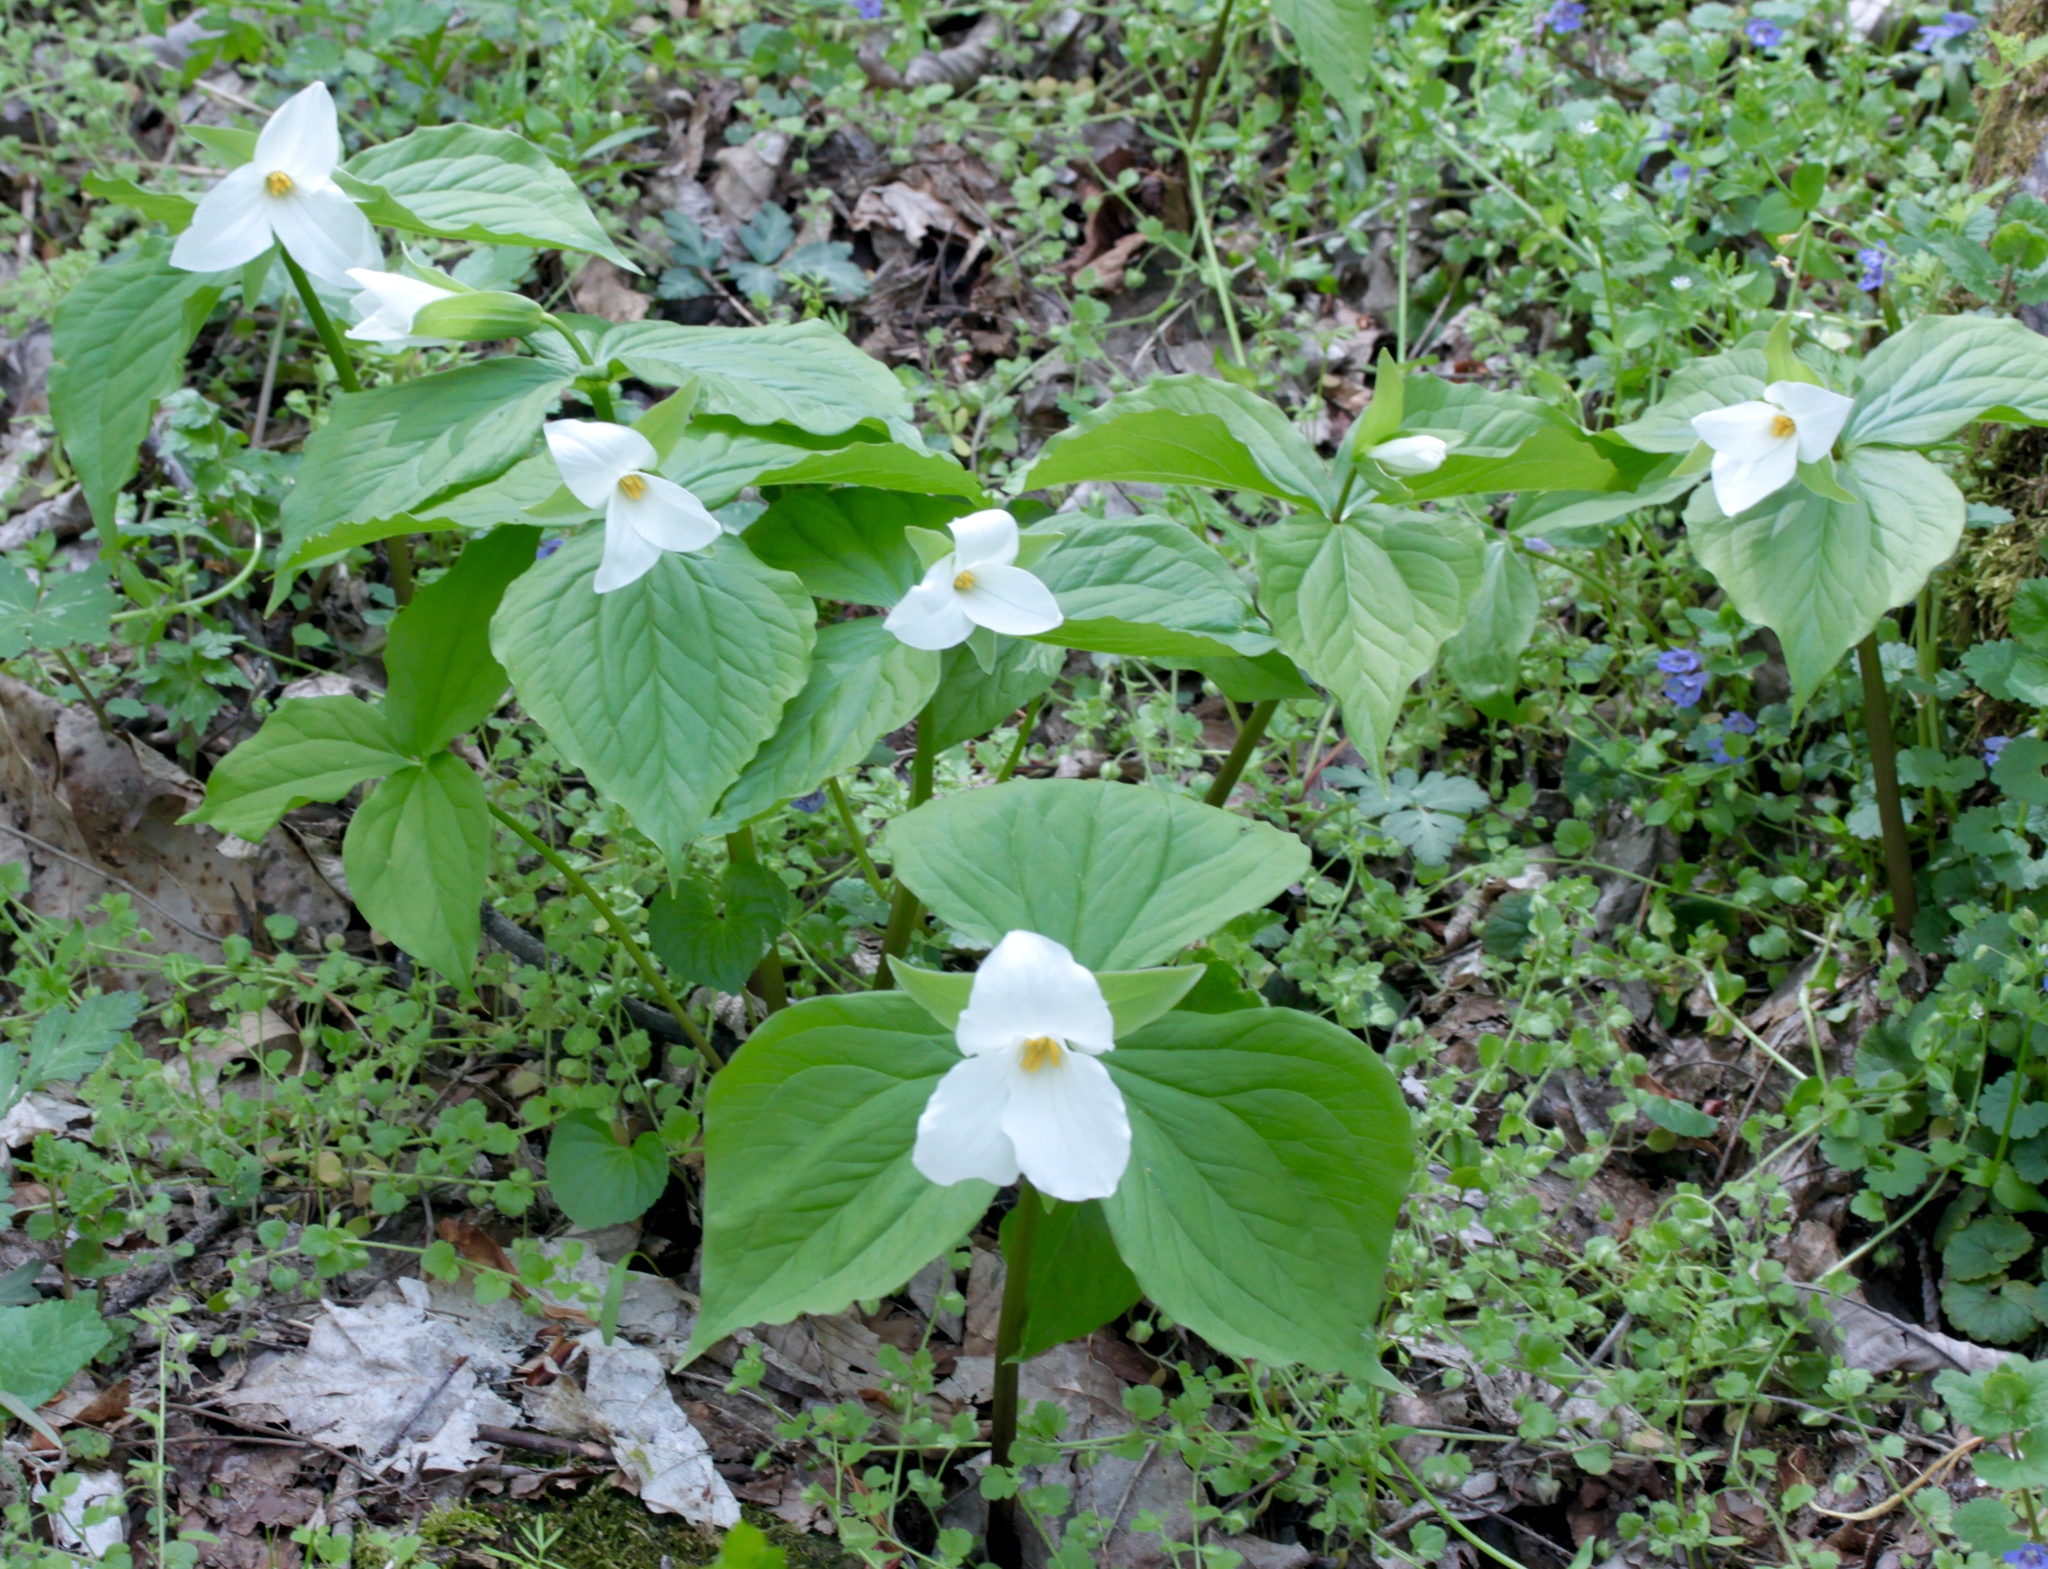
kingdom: Plantae
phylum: Tracheophyta
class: Liliopsida
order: Liliales
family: Melanthiaceae
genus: Trillium
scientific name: Trillium grandiflorum
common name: Great white trillium
